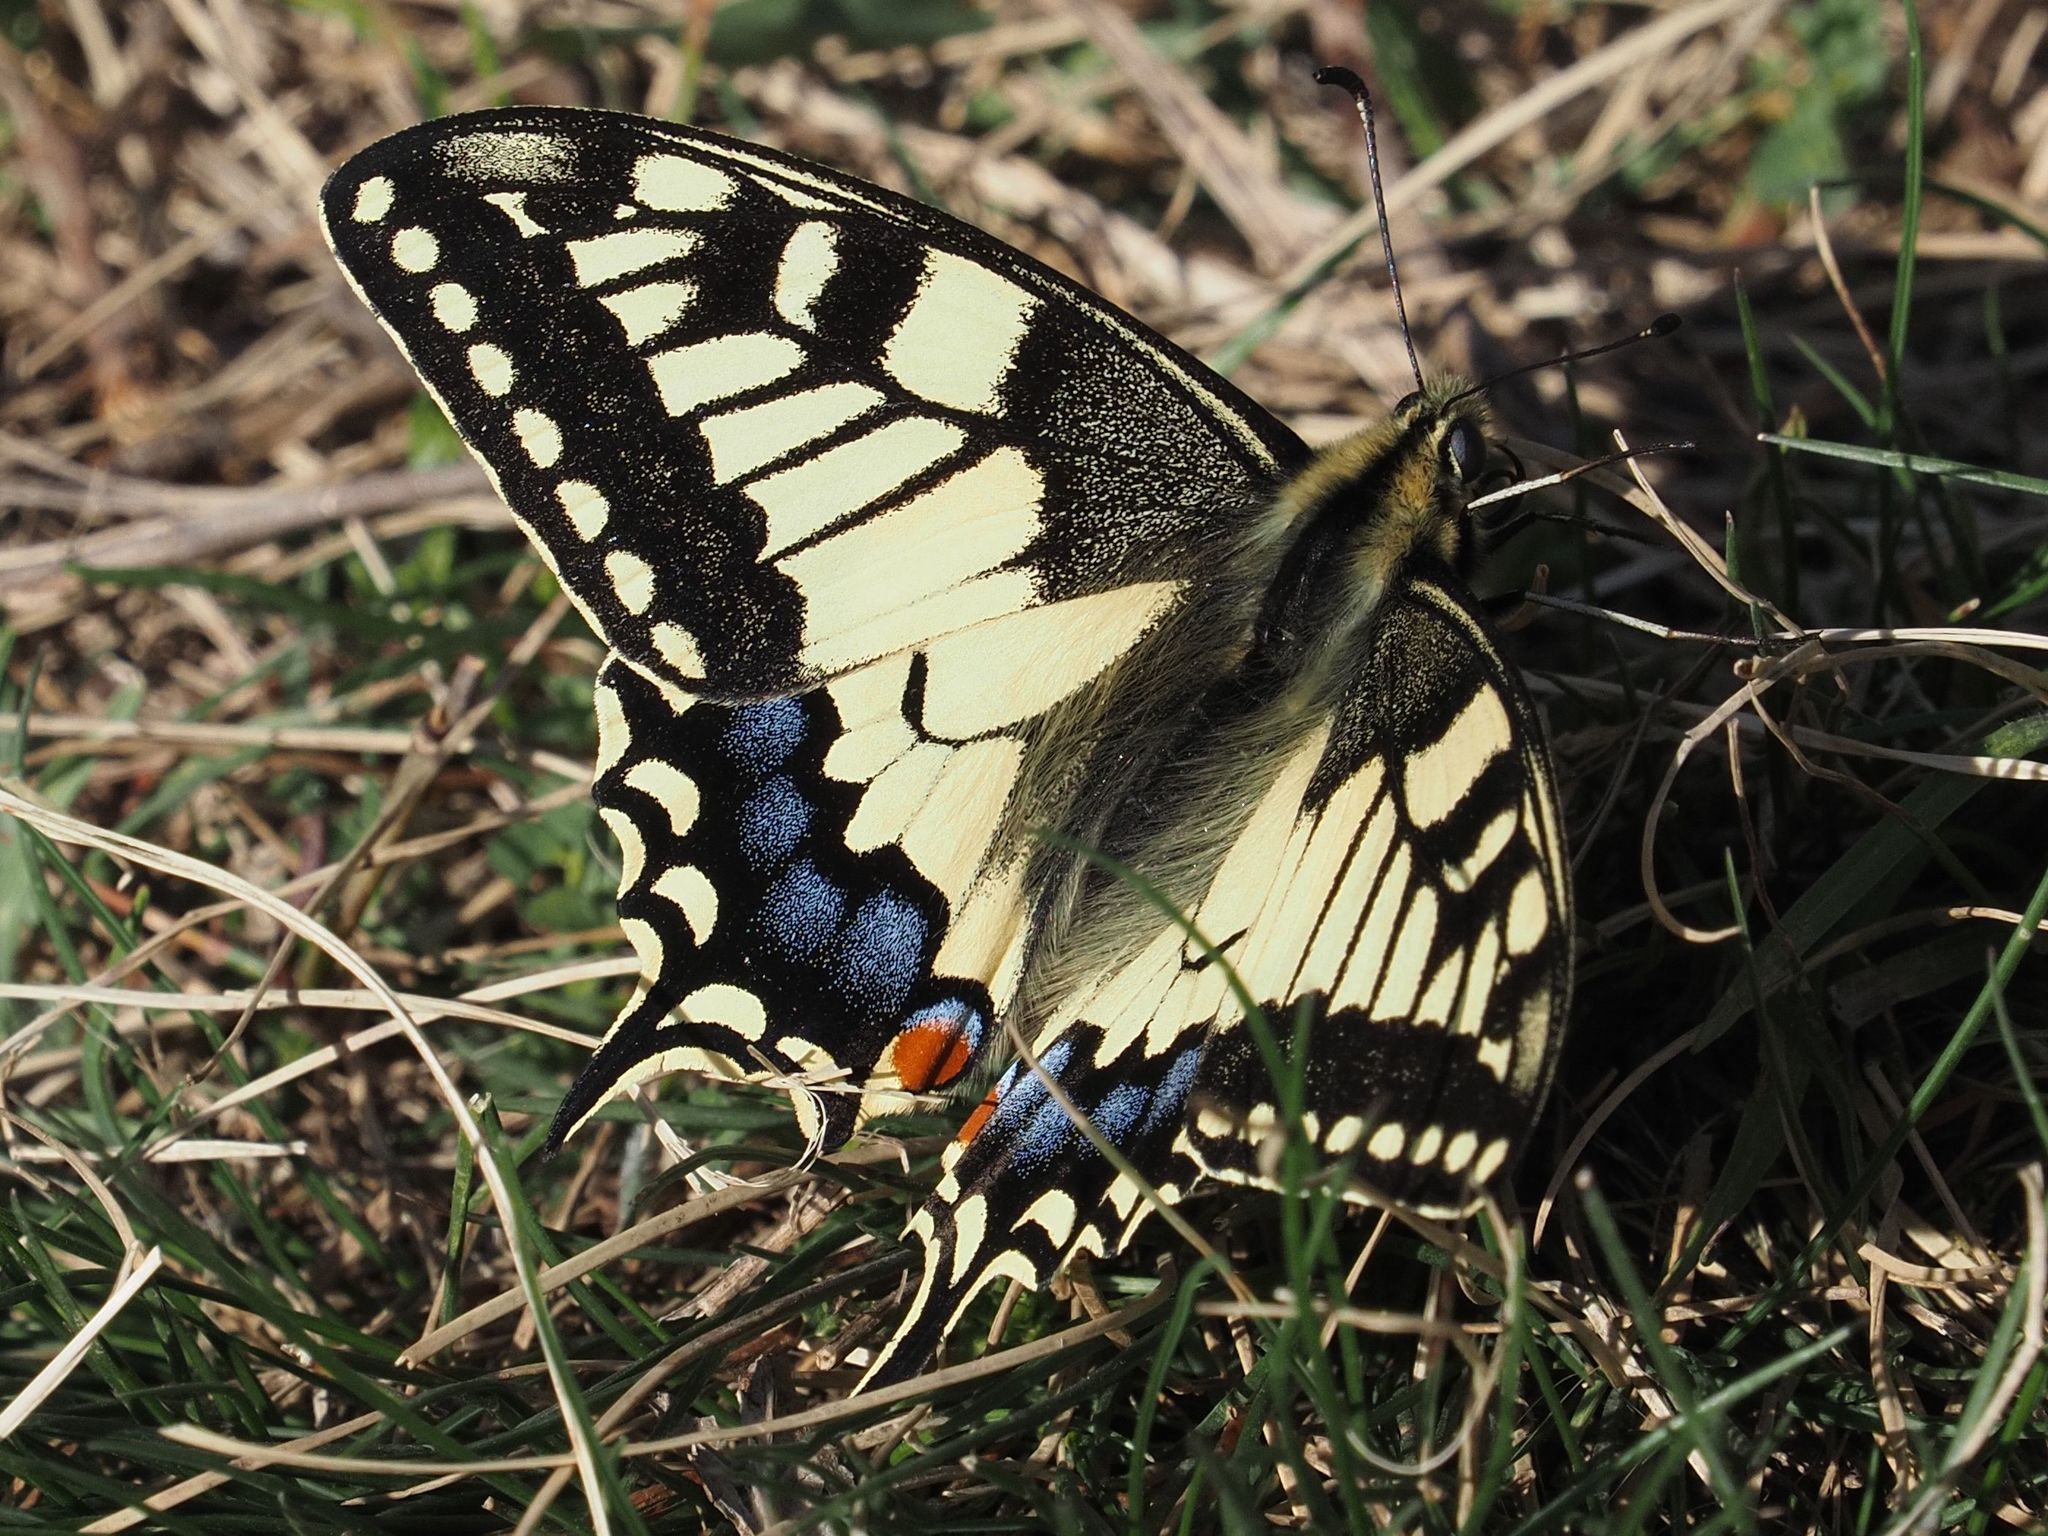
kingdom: Animalia
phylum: Arthropoda
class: Insecta
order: Lepidoptera
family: Papilionidae
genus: Papilio
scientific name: Papilio machaon
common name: Swallowtail
